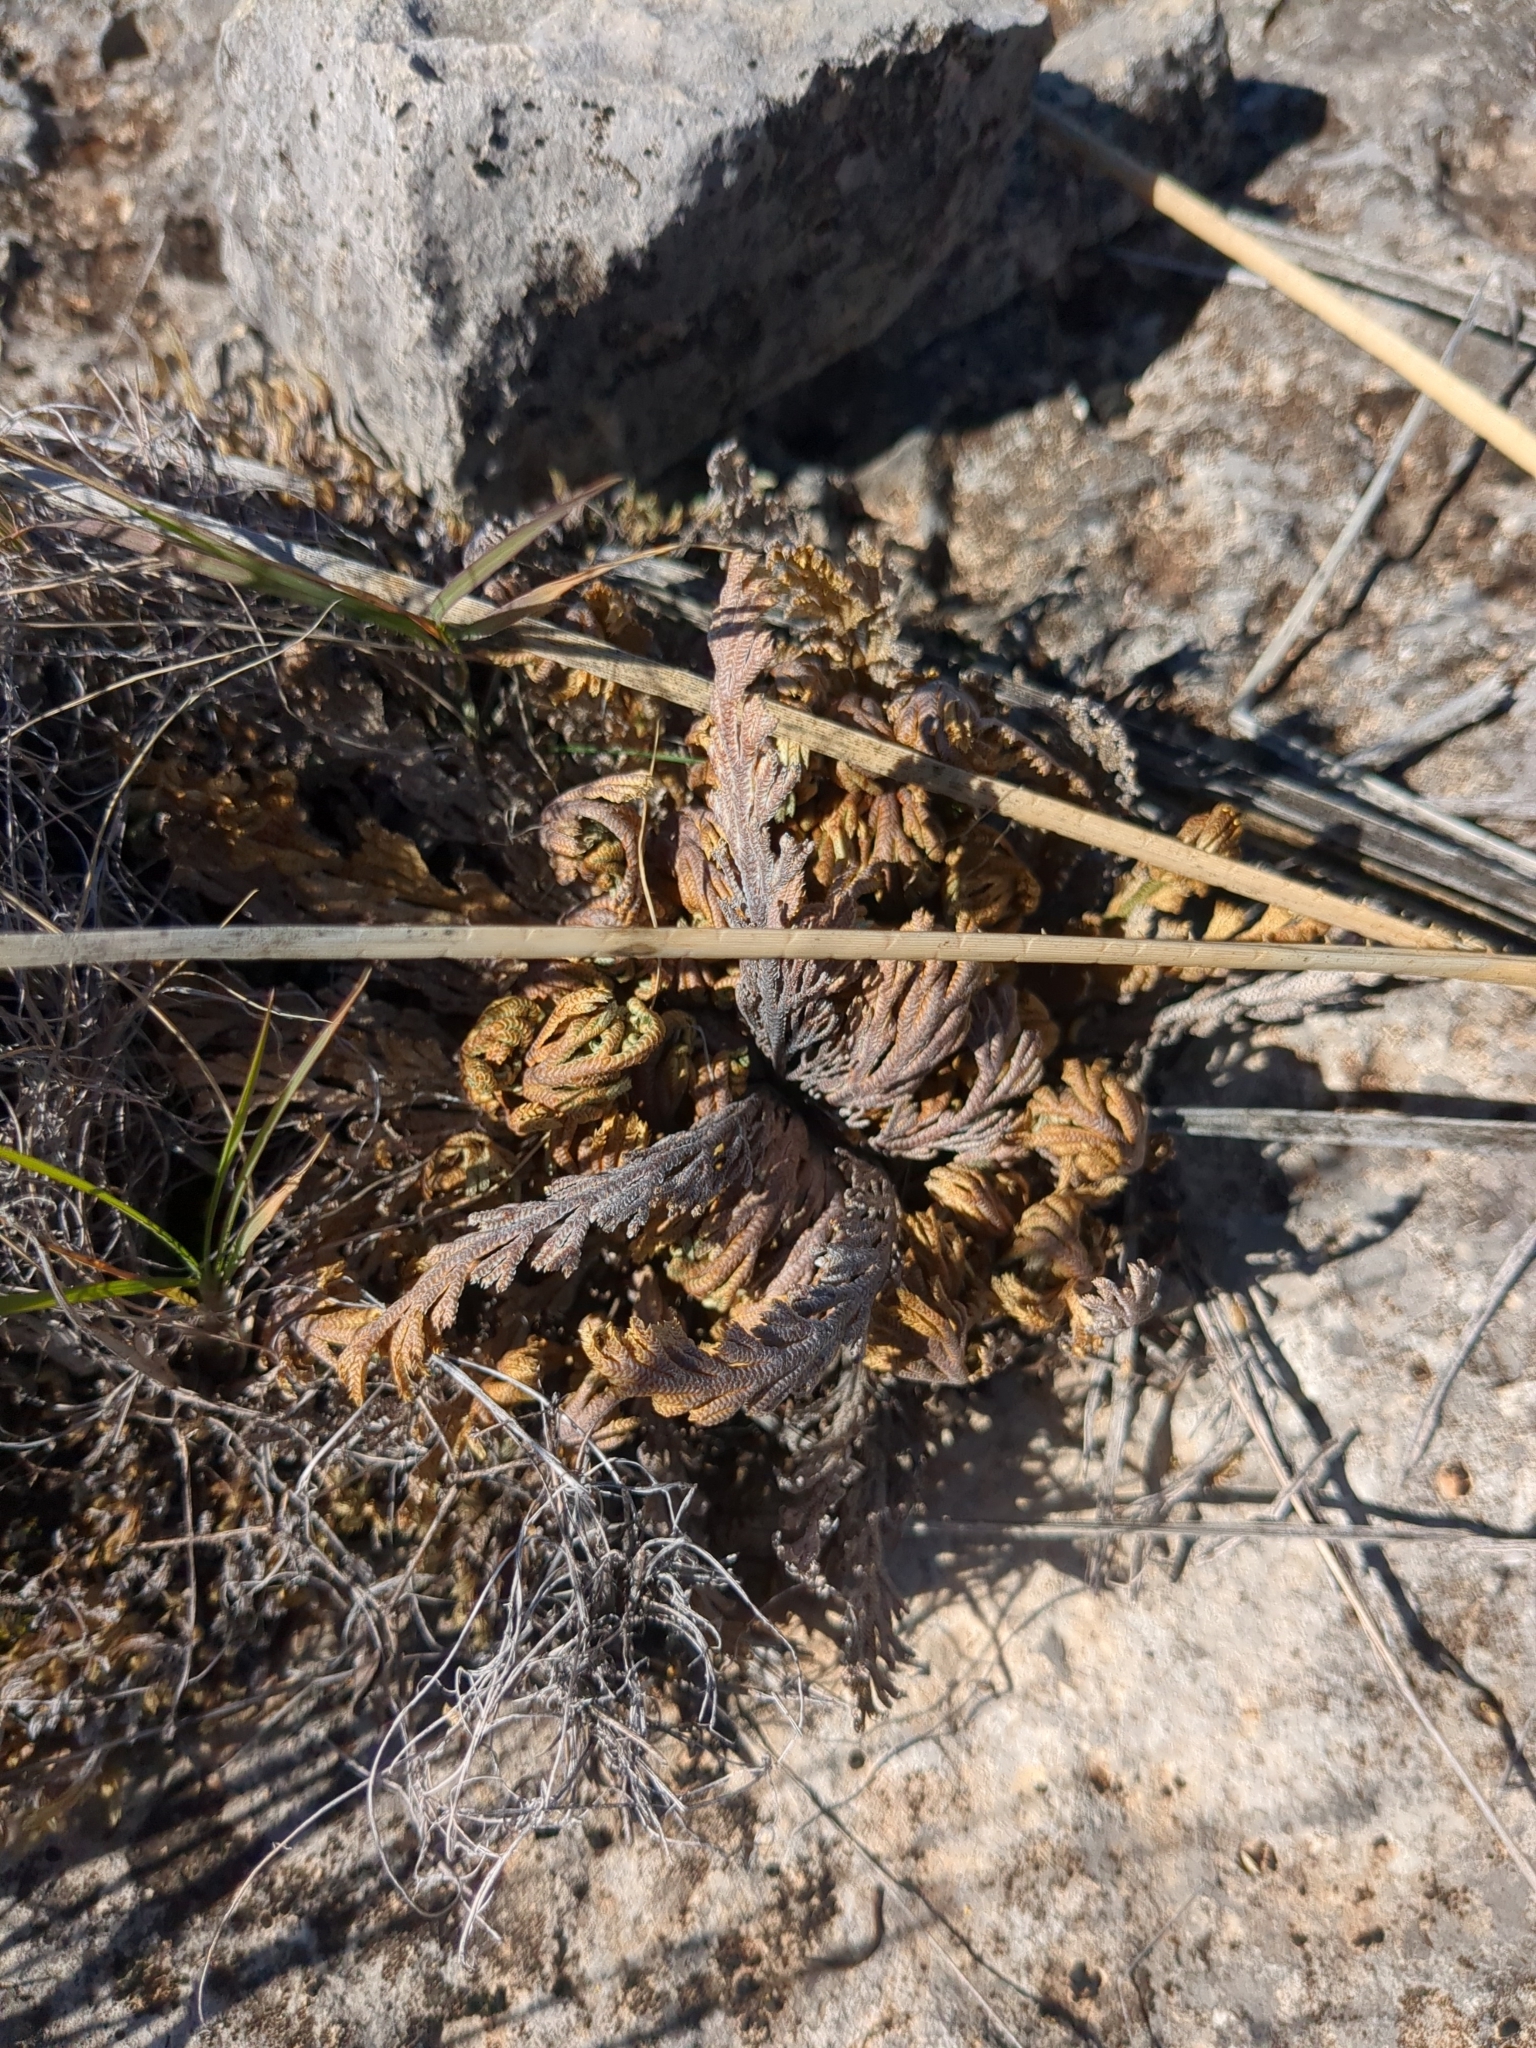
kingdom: Plantae
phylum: Tracheophyta
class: Lycopodiopsida
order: Selaginellales
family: Selaginellaceae
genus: Selaginella
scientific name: Selaginella lepidophylla
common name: Rose-of-jericho
